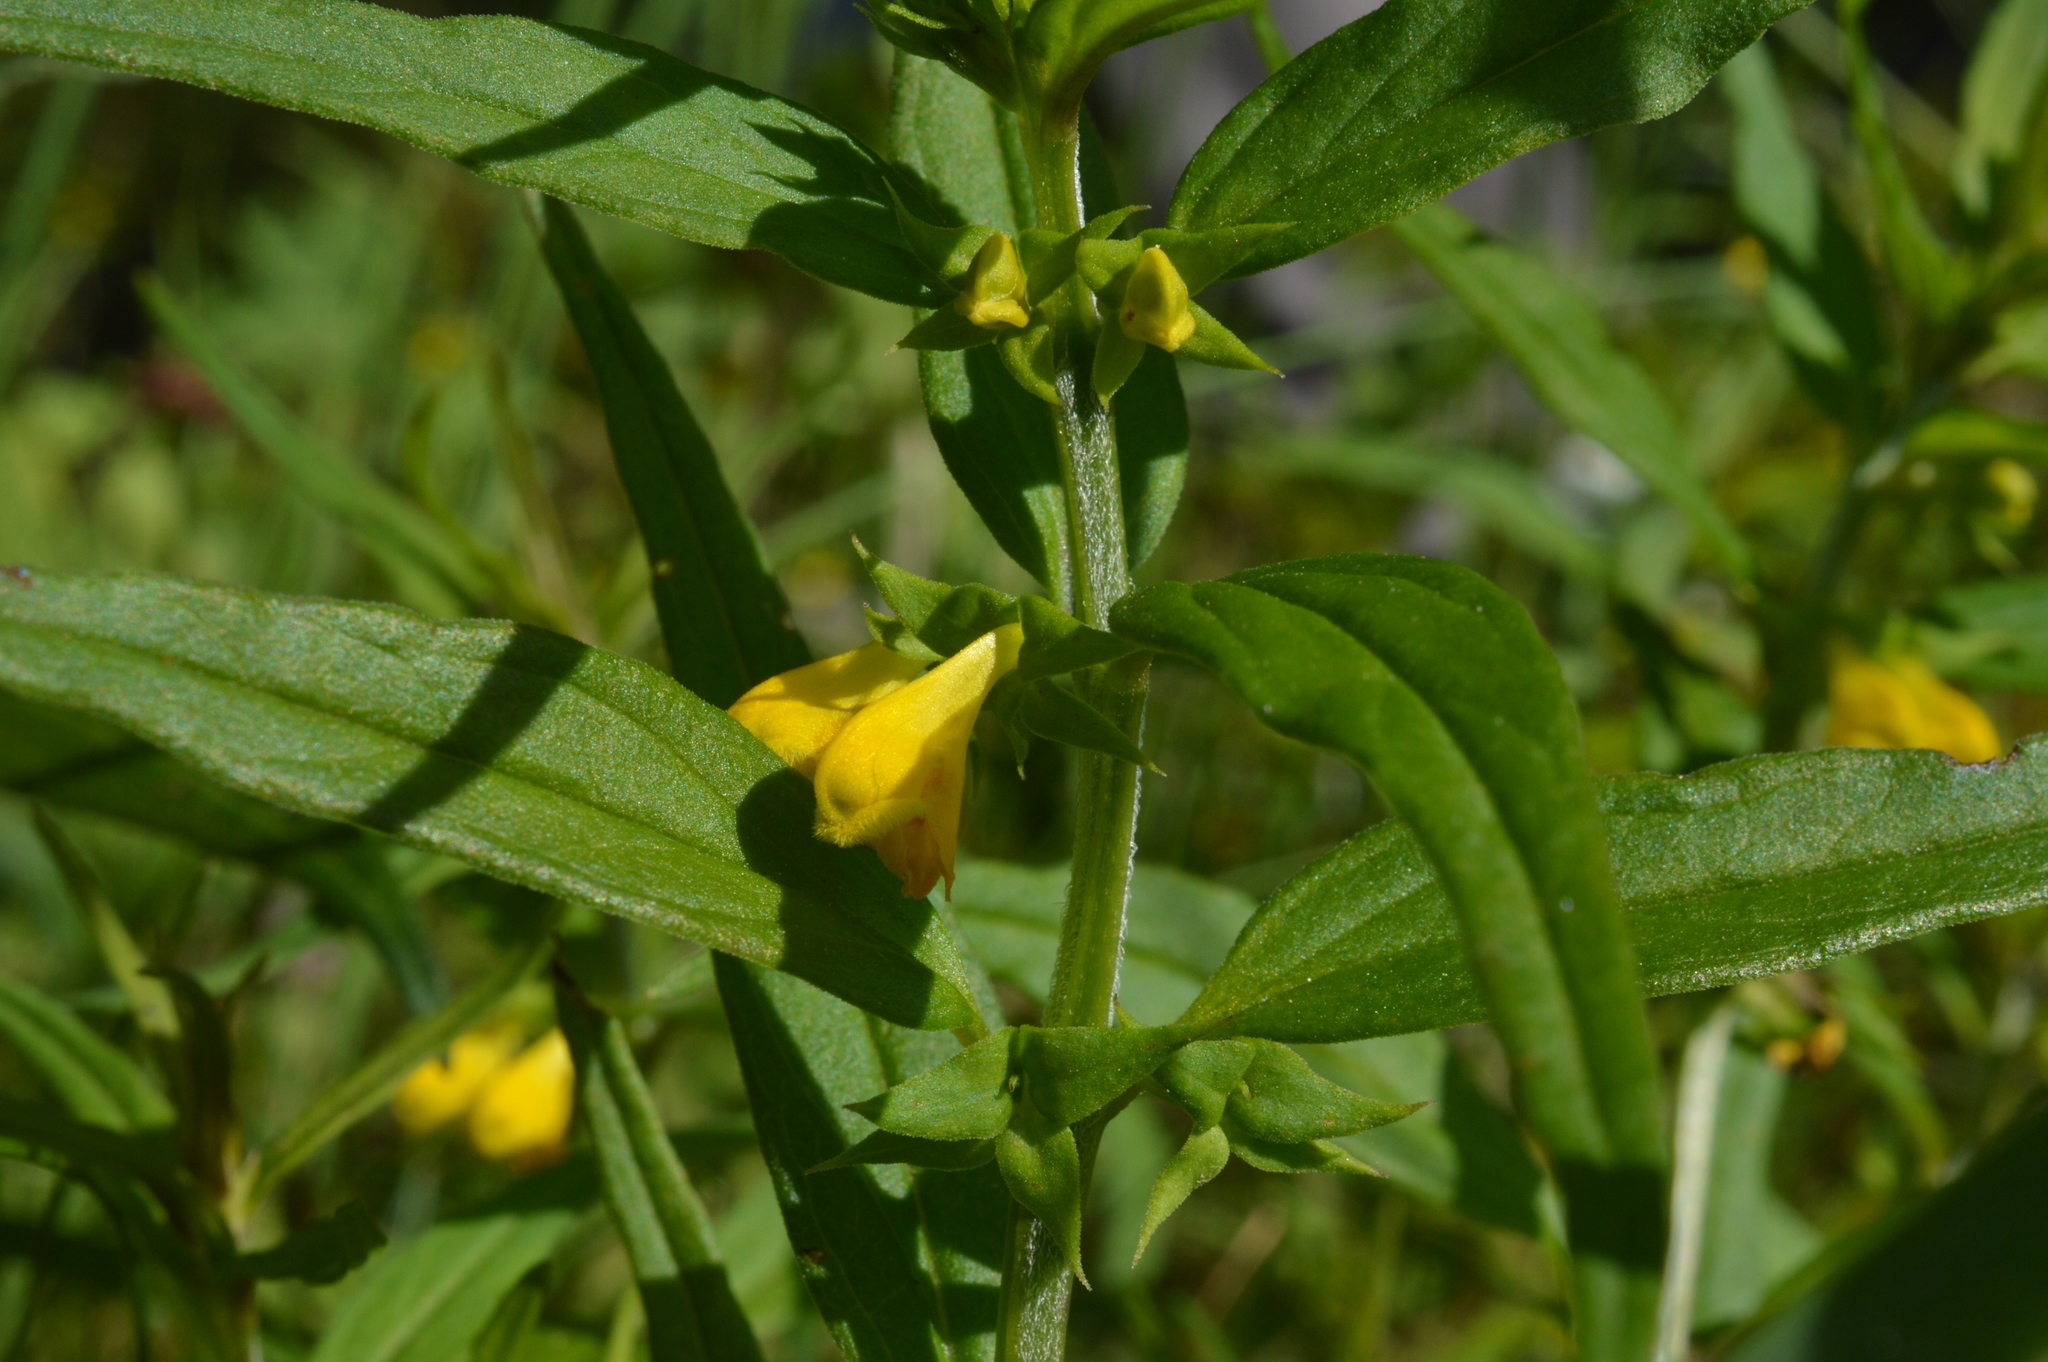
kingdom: Plantae
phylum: Tracheophyta
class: Magnoliopsida
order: Lamiales
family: Orobanchaceae
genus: Melampyrum
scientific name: Melampyrum sylvaticum
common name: Small cow-wheat
